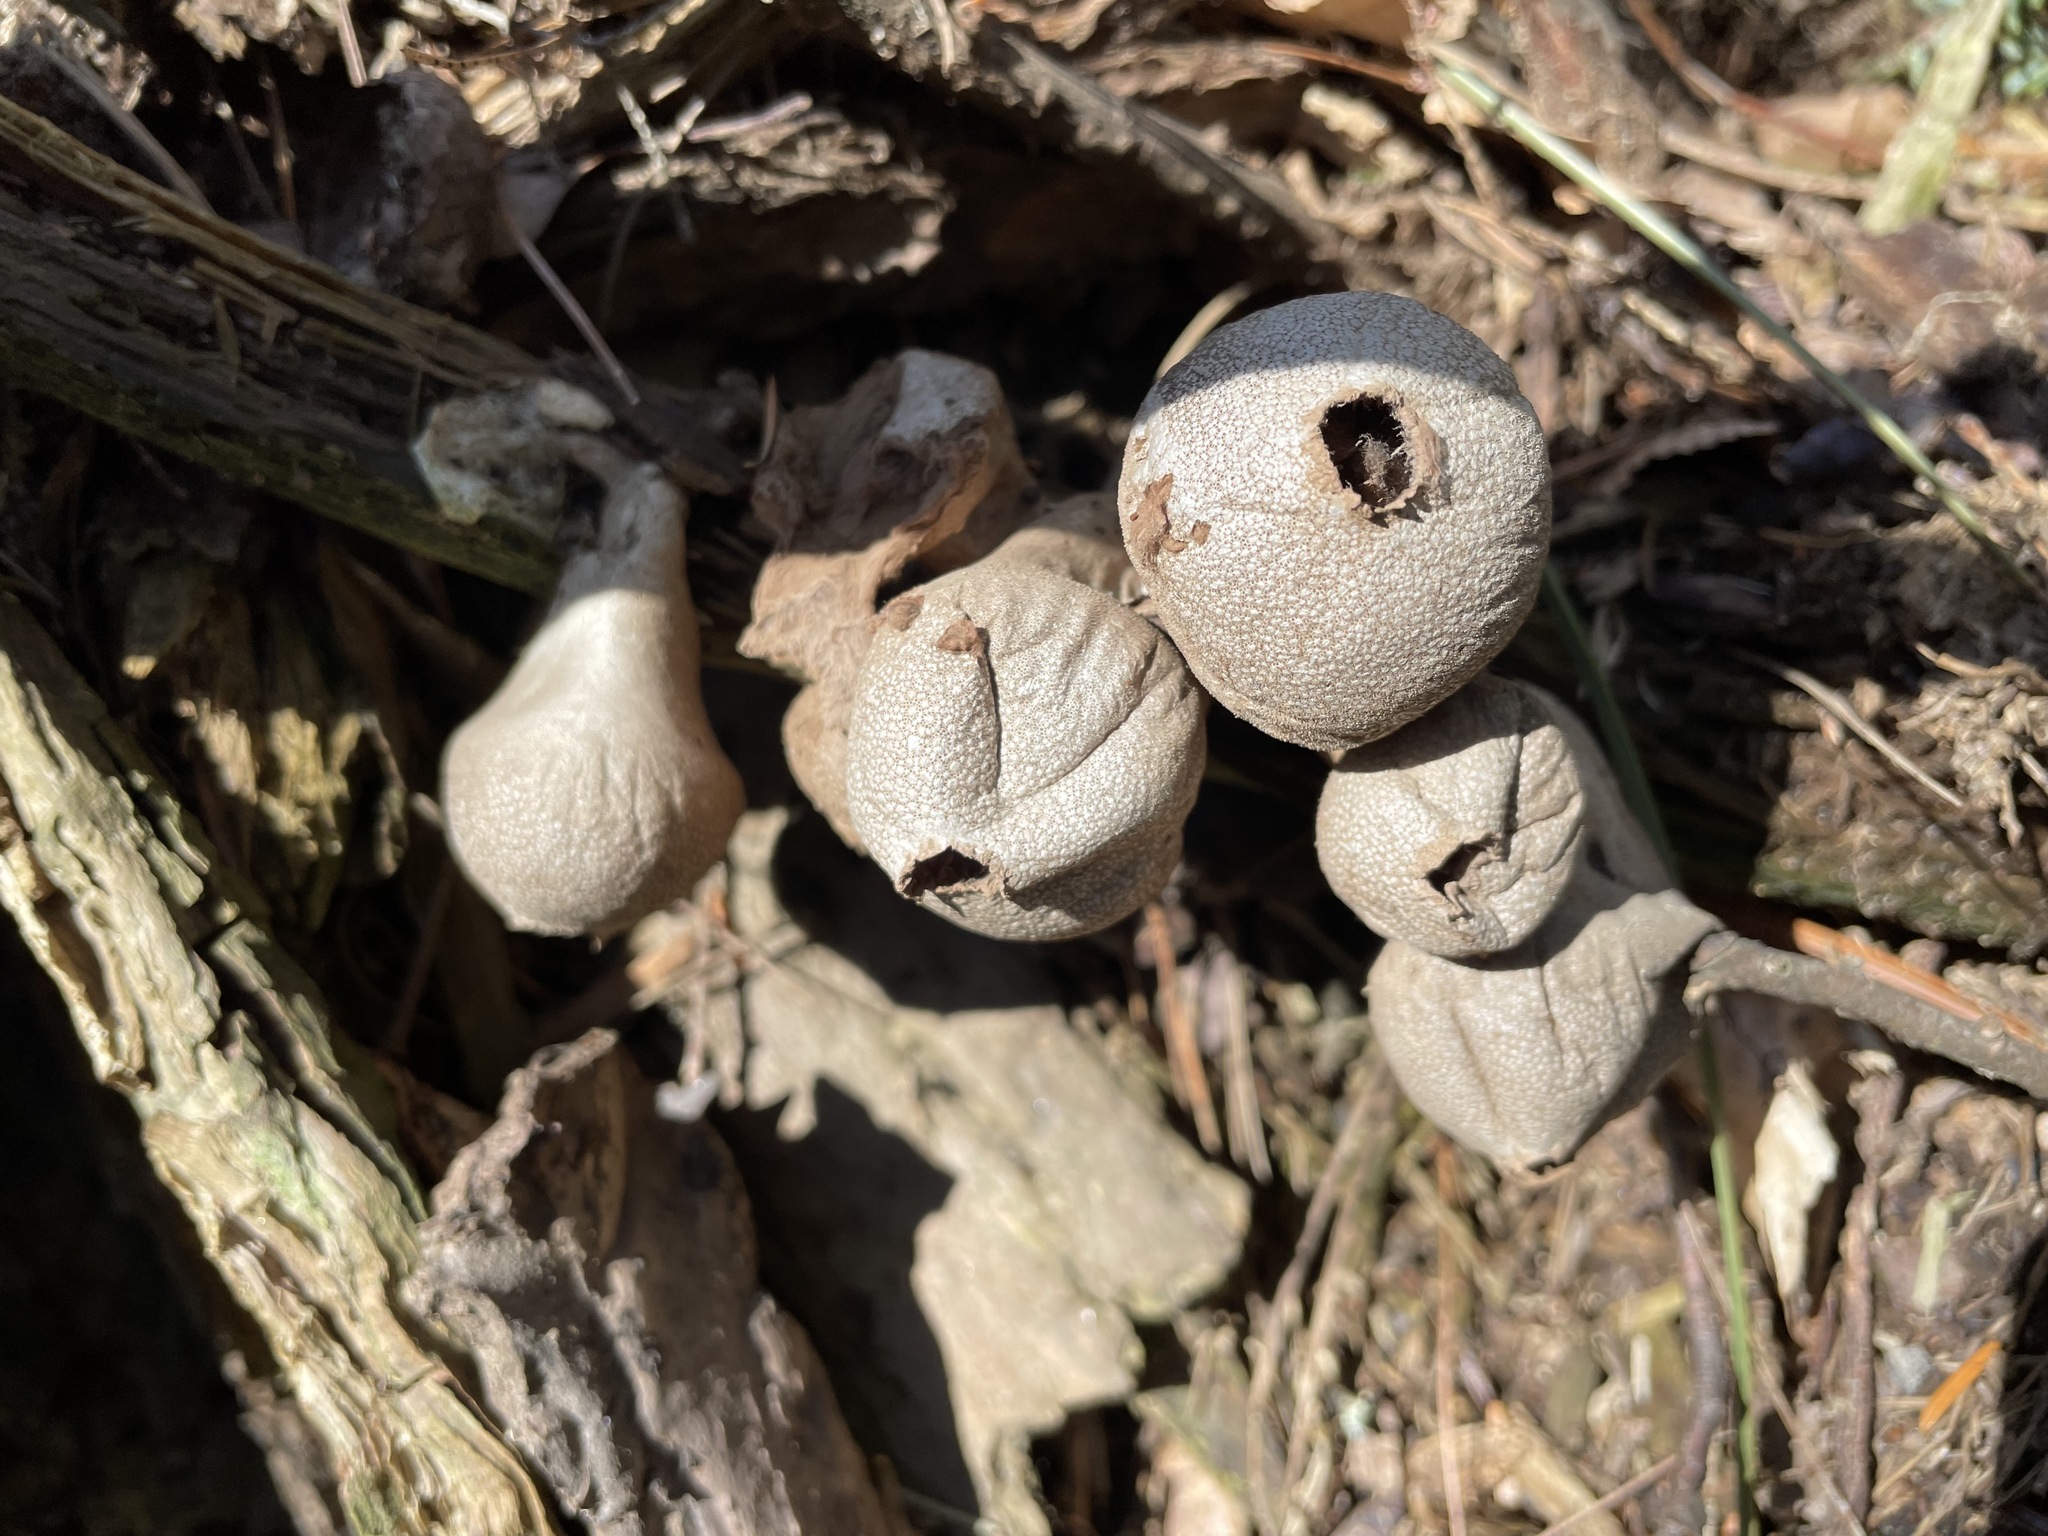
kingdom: Fungi
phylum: Basidiomycota
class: Agaricomycetes
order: Agaricales
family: Lycoperdaceae
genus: Apioperdon
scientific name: Apioperdon pyriforme
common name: Pear-shaped puffball
